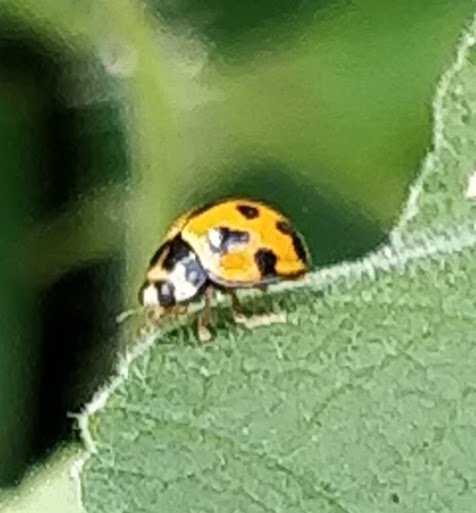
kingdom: Animalia
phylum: Arthropoda
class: Insecta
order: Coleoptera
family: Coccinellidae
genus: Coelophora
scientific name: Coelophora inaequalis
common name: Common australian lady beetle
